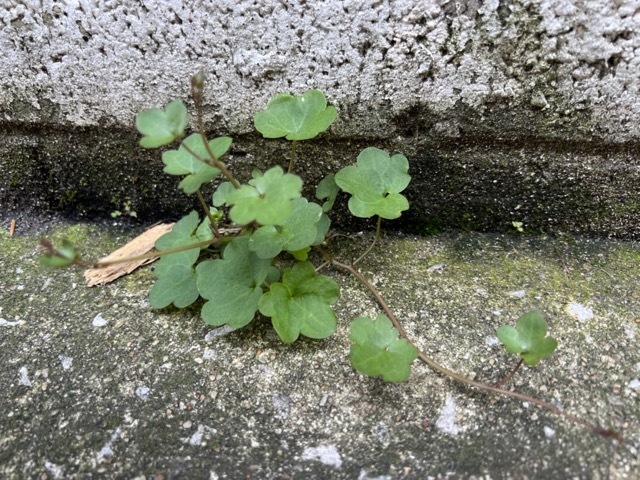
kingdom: Plantae
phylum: Tracheophyta
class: Magnoliopsida
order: Lamiales
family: Plantaginaceae
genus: Cymbalaria
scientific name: Cymbalaria muralis
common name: Ivy-leaved toadflax
